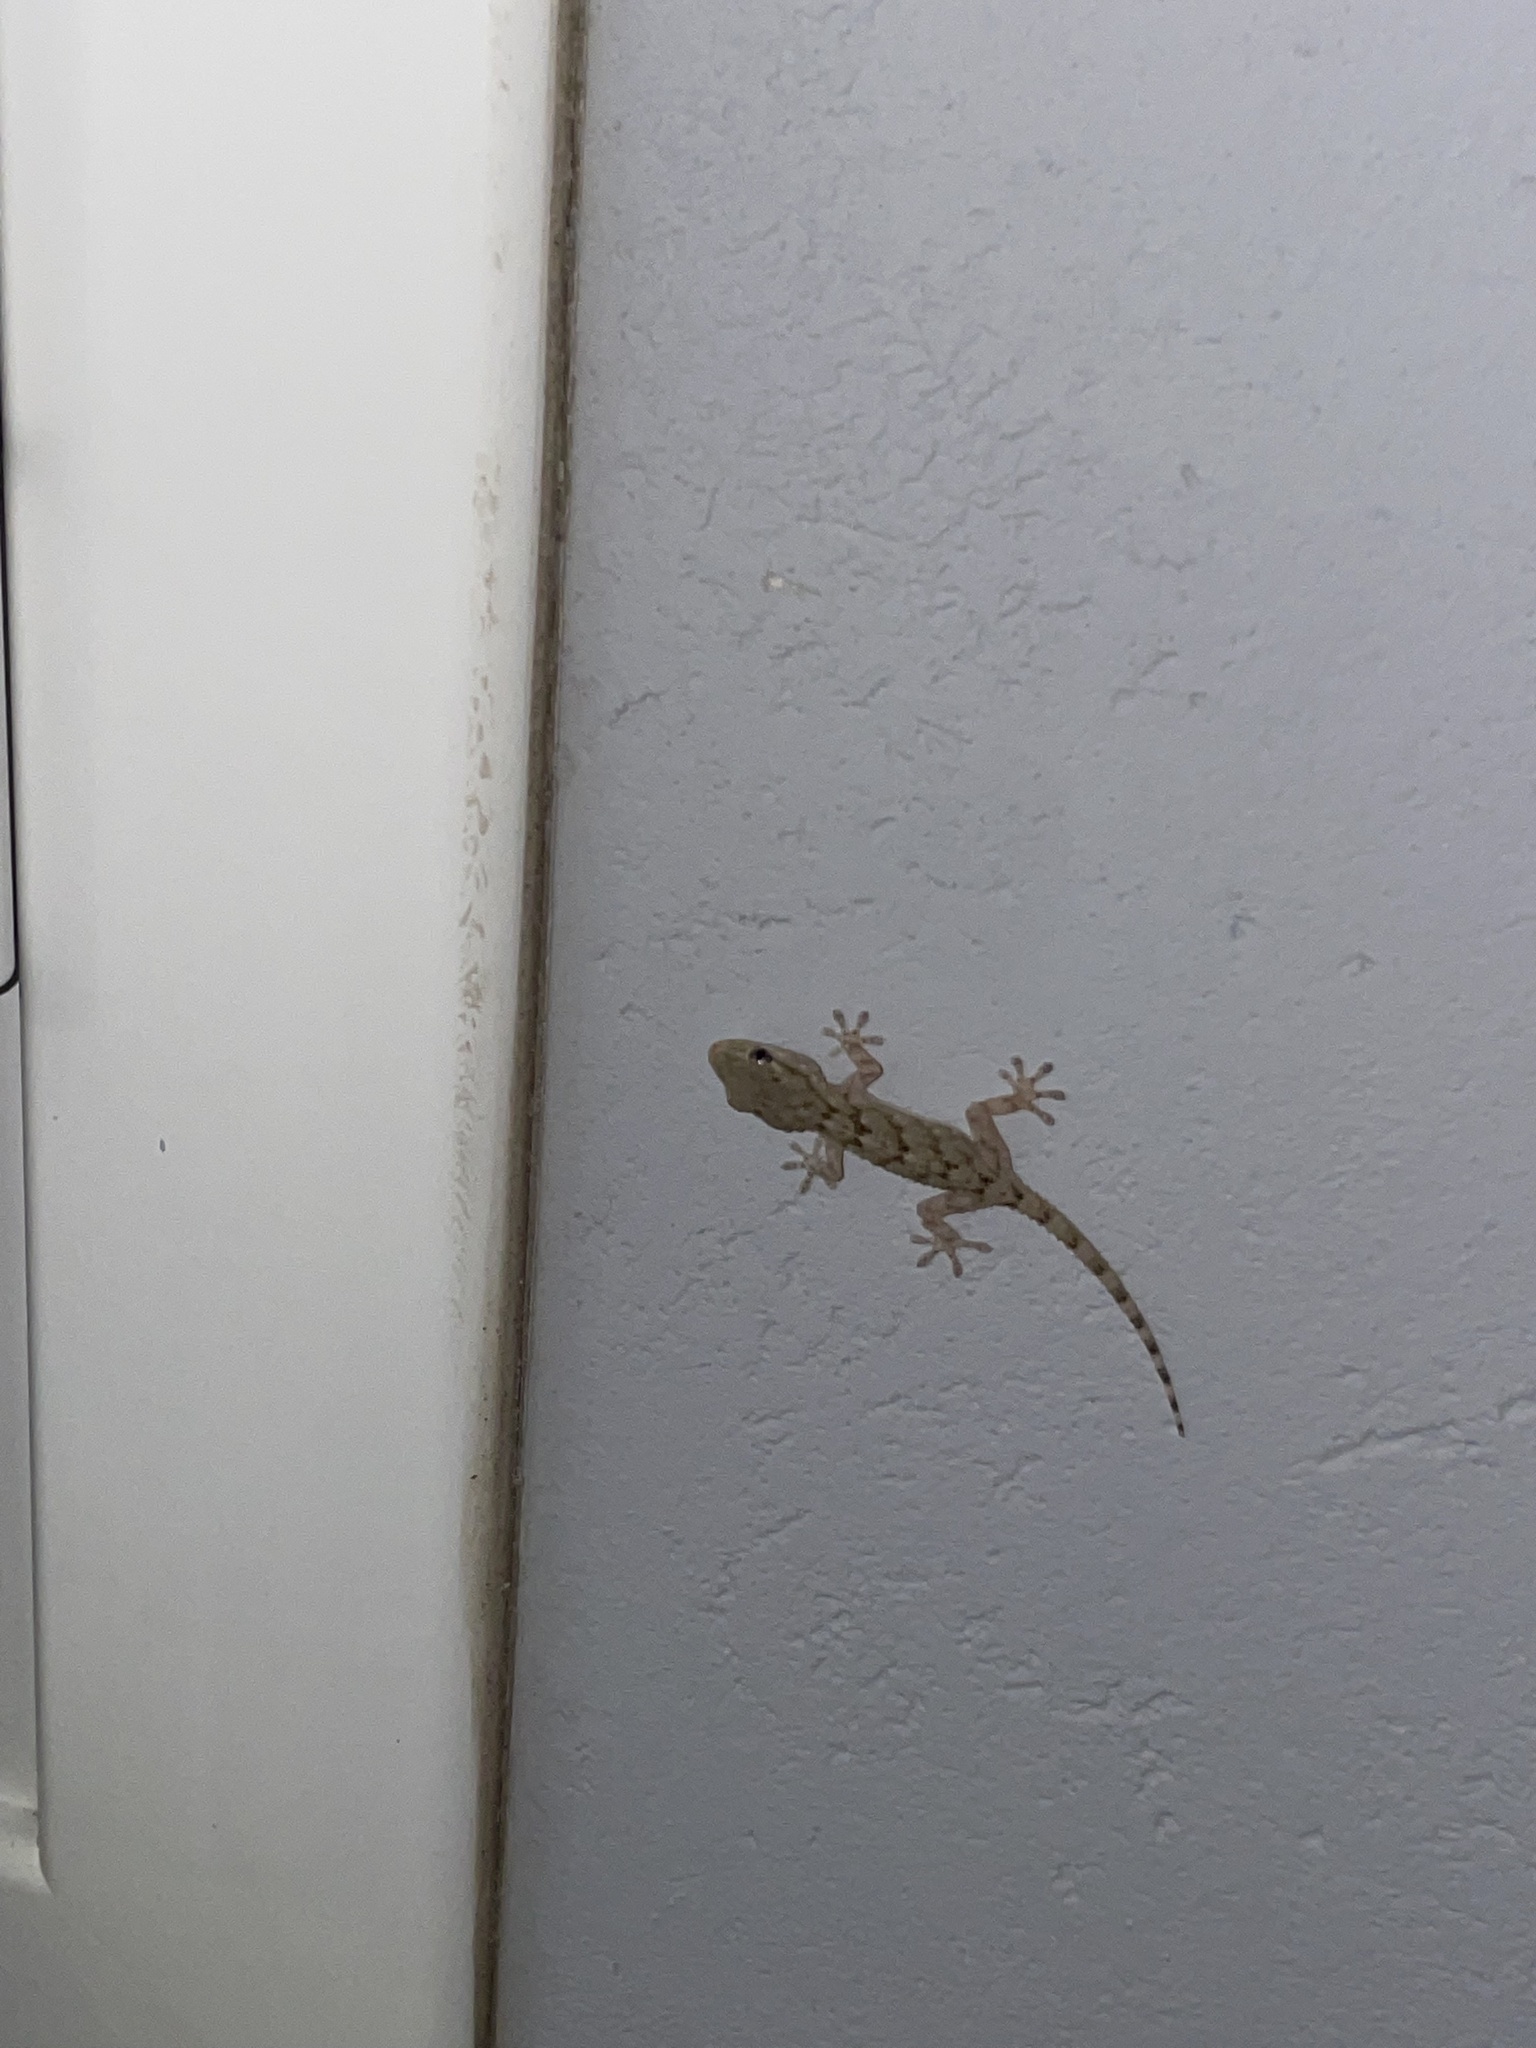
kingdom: Animalia
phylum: Chordata
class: Squamata
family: Phyllodactylidae
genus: Tarentola
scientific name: Tarentola mauritanica
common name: Moorish gecko
